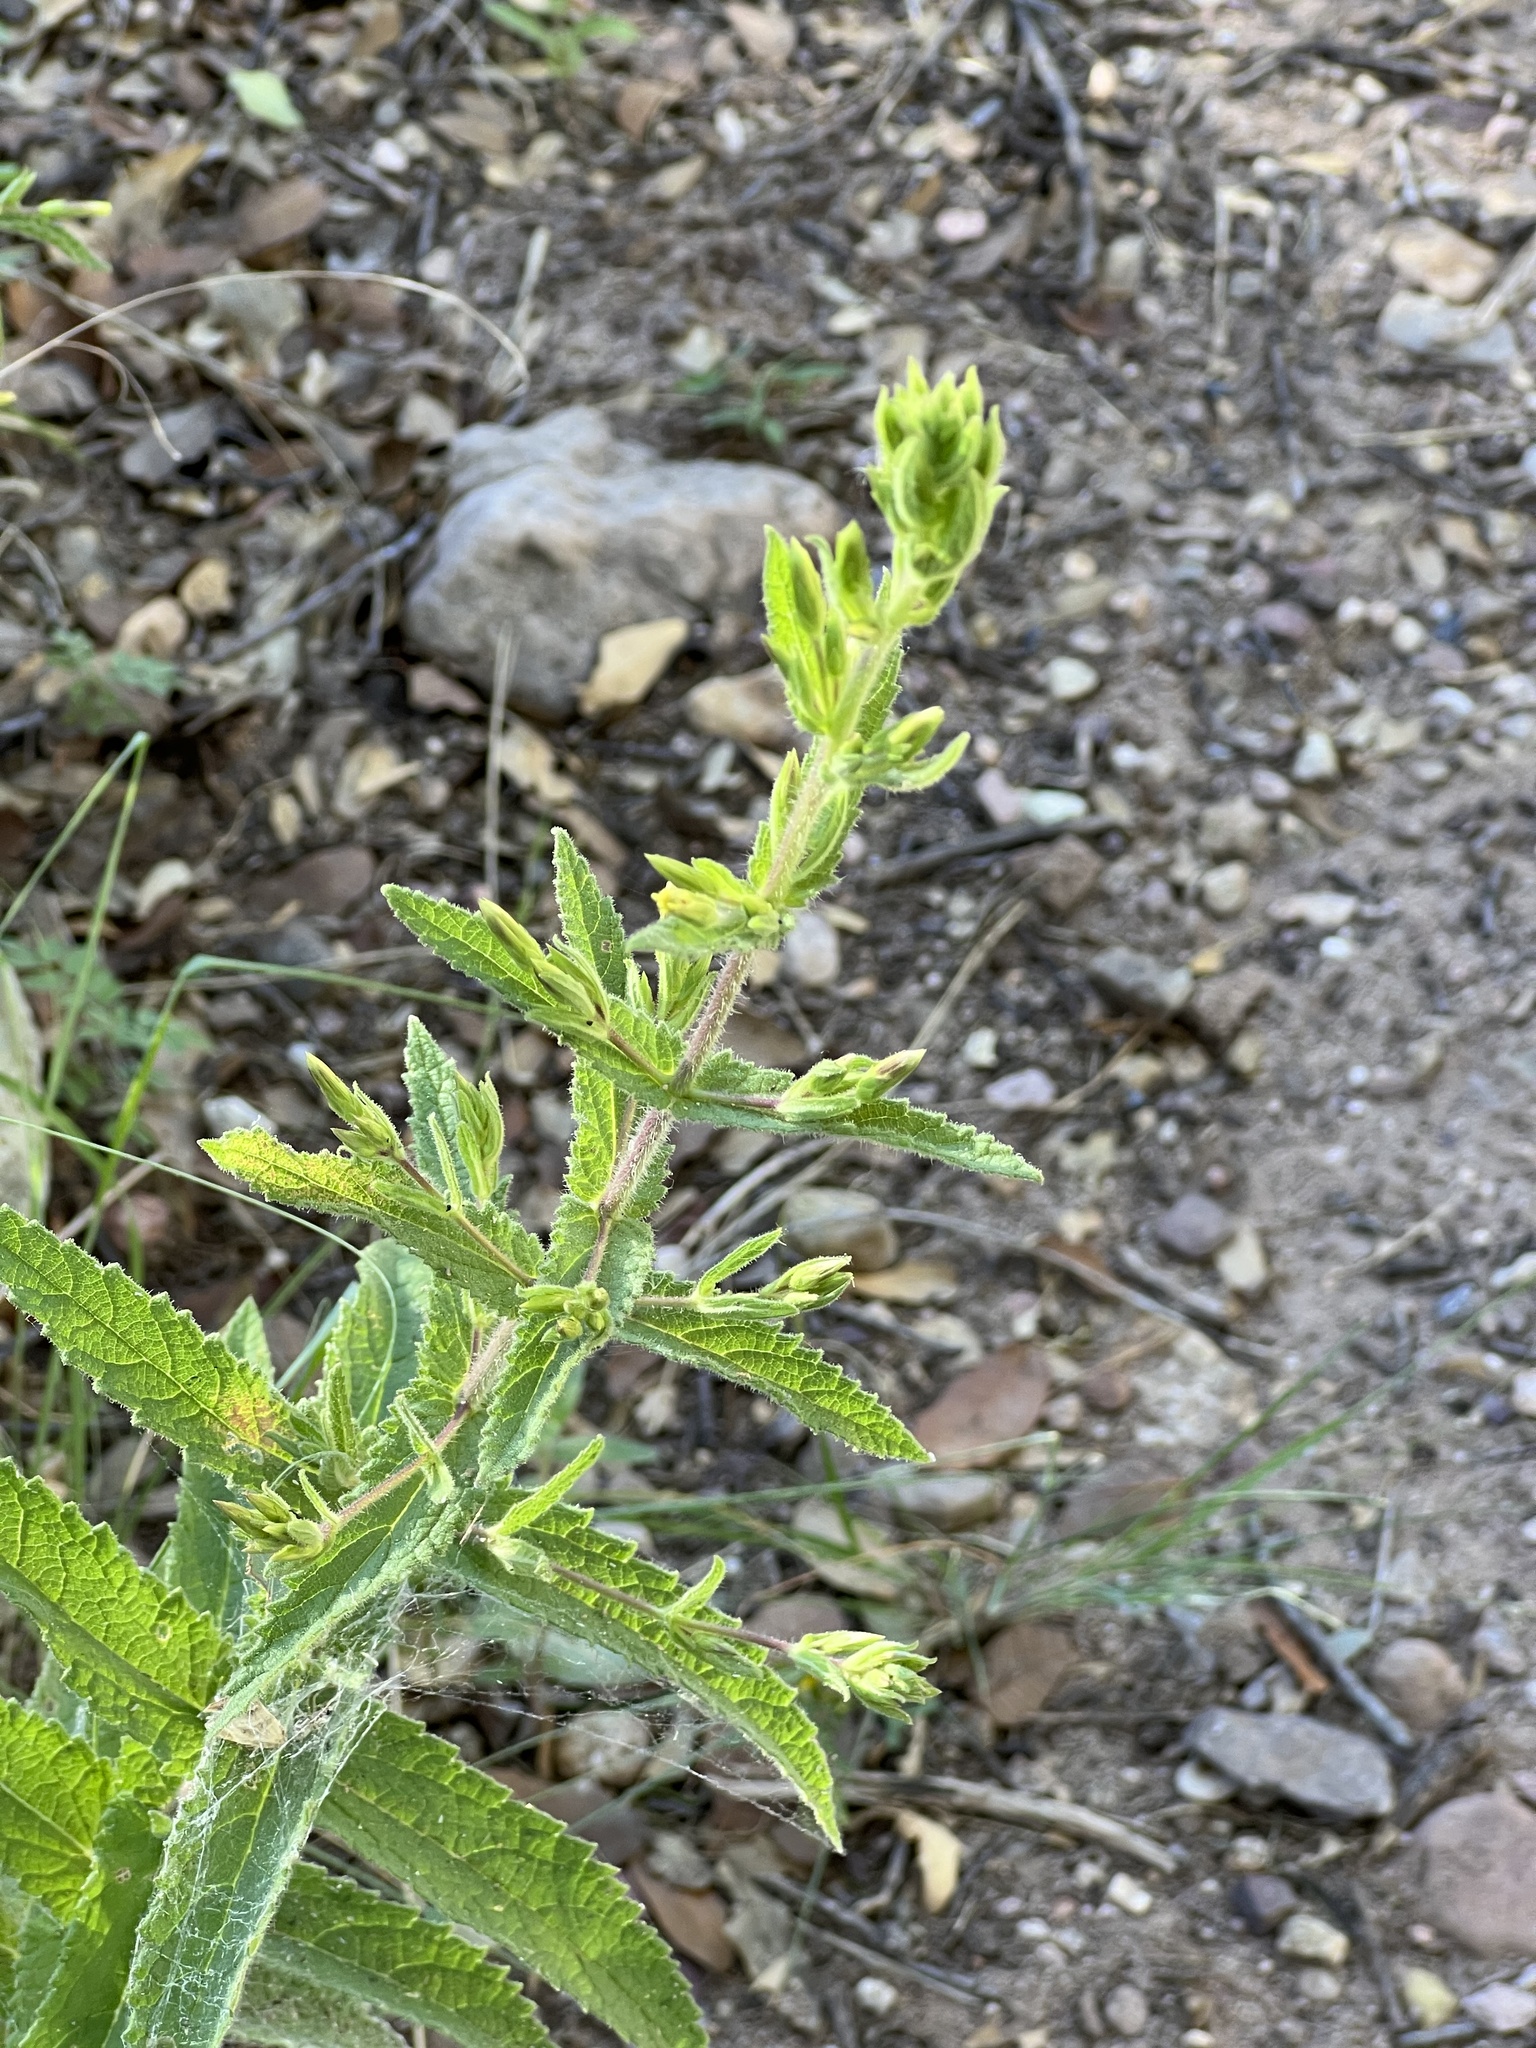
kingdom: Plantae
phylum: Tracheophyta
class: Magnoliopsida
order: Asterales
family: Asteraceae
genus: Brickellia
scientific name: Brickellia amplexicaulis
